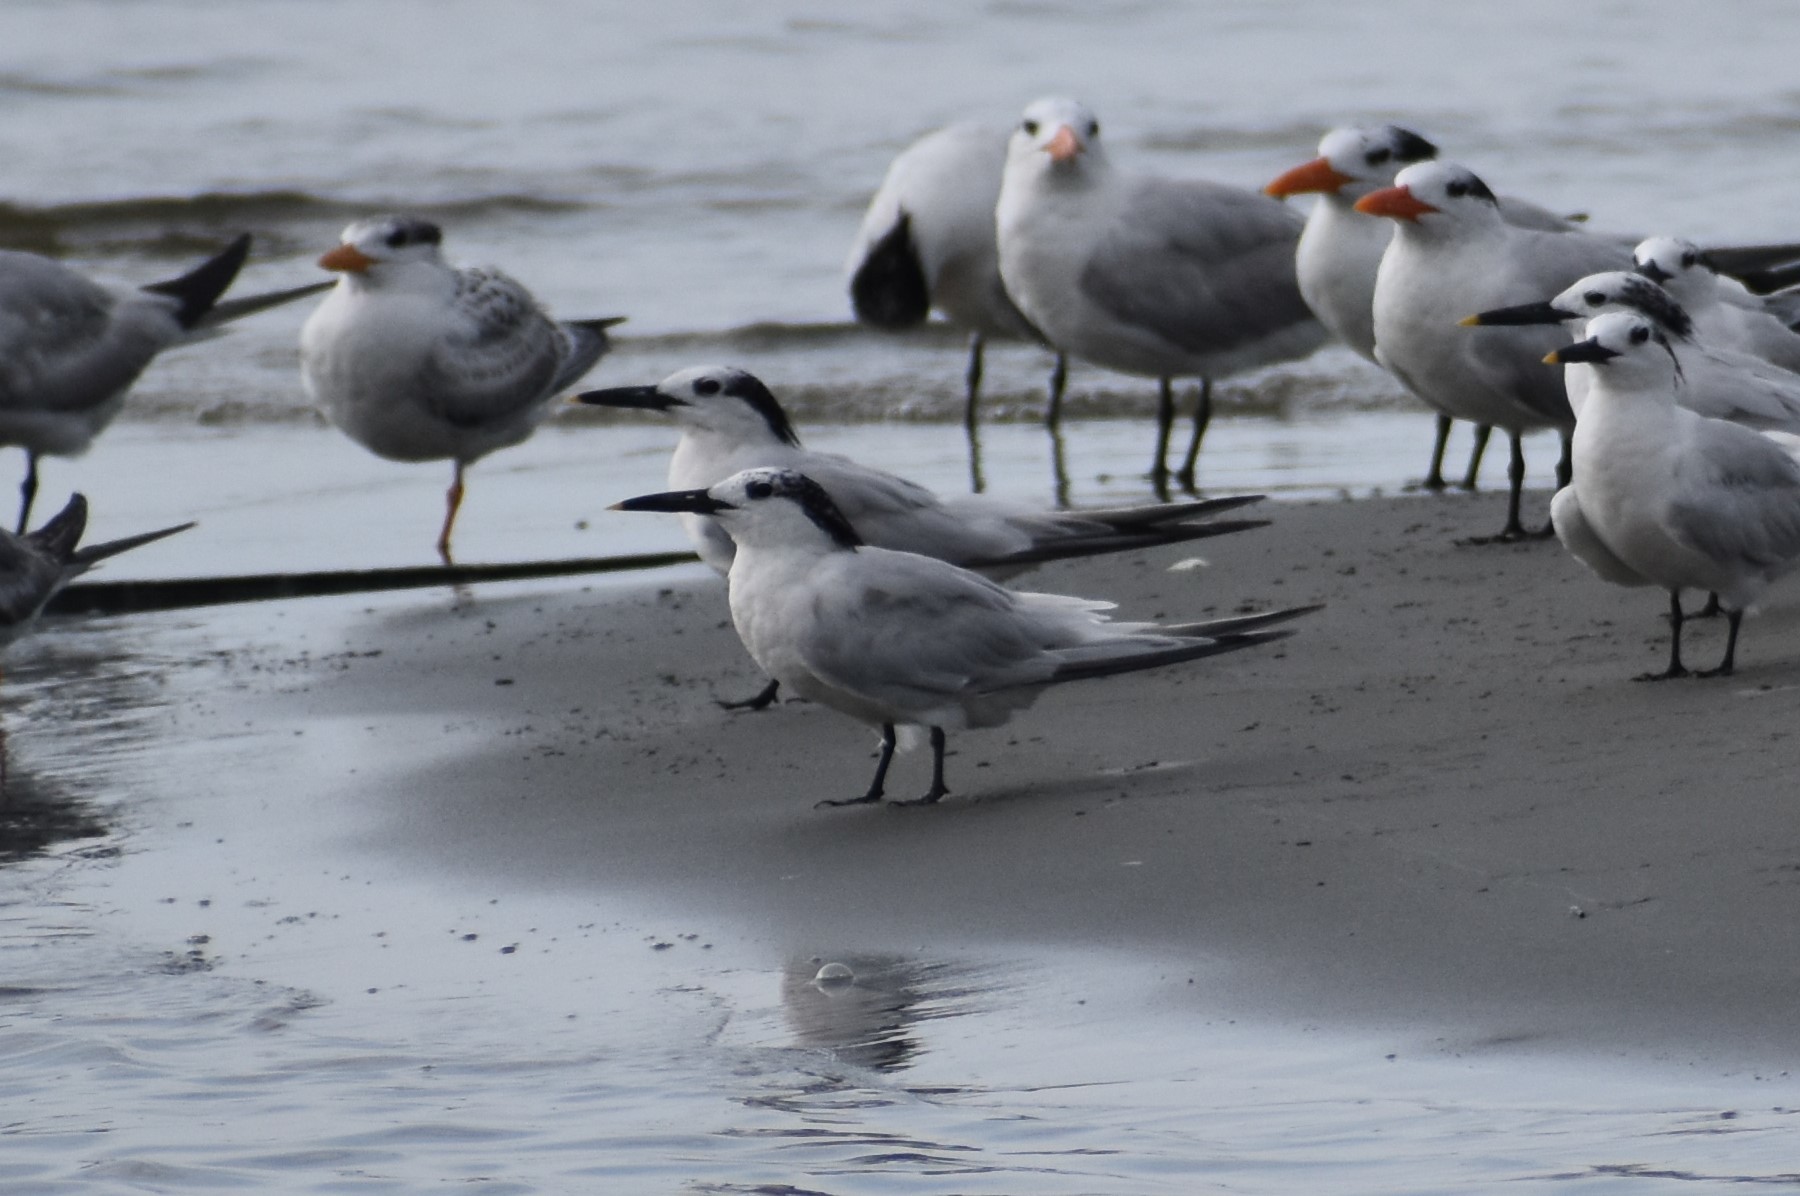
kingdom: Animalia
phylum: Chordata
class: Aves
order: Charadriiformes
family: Laridae
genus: Thalasseus
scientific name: Thalasseus sandvicensis
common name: Sandwich tern
